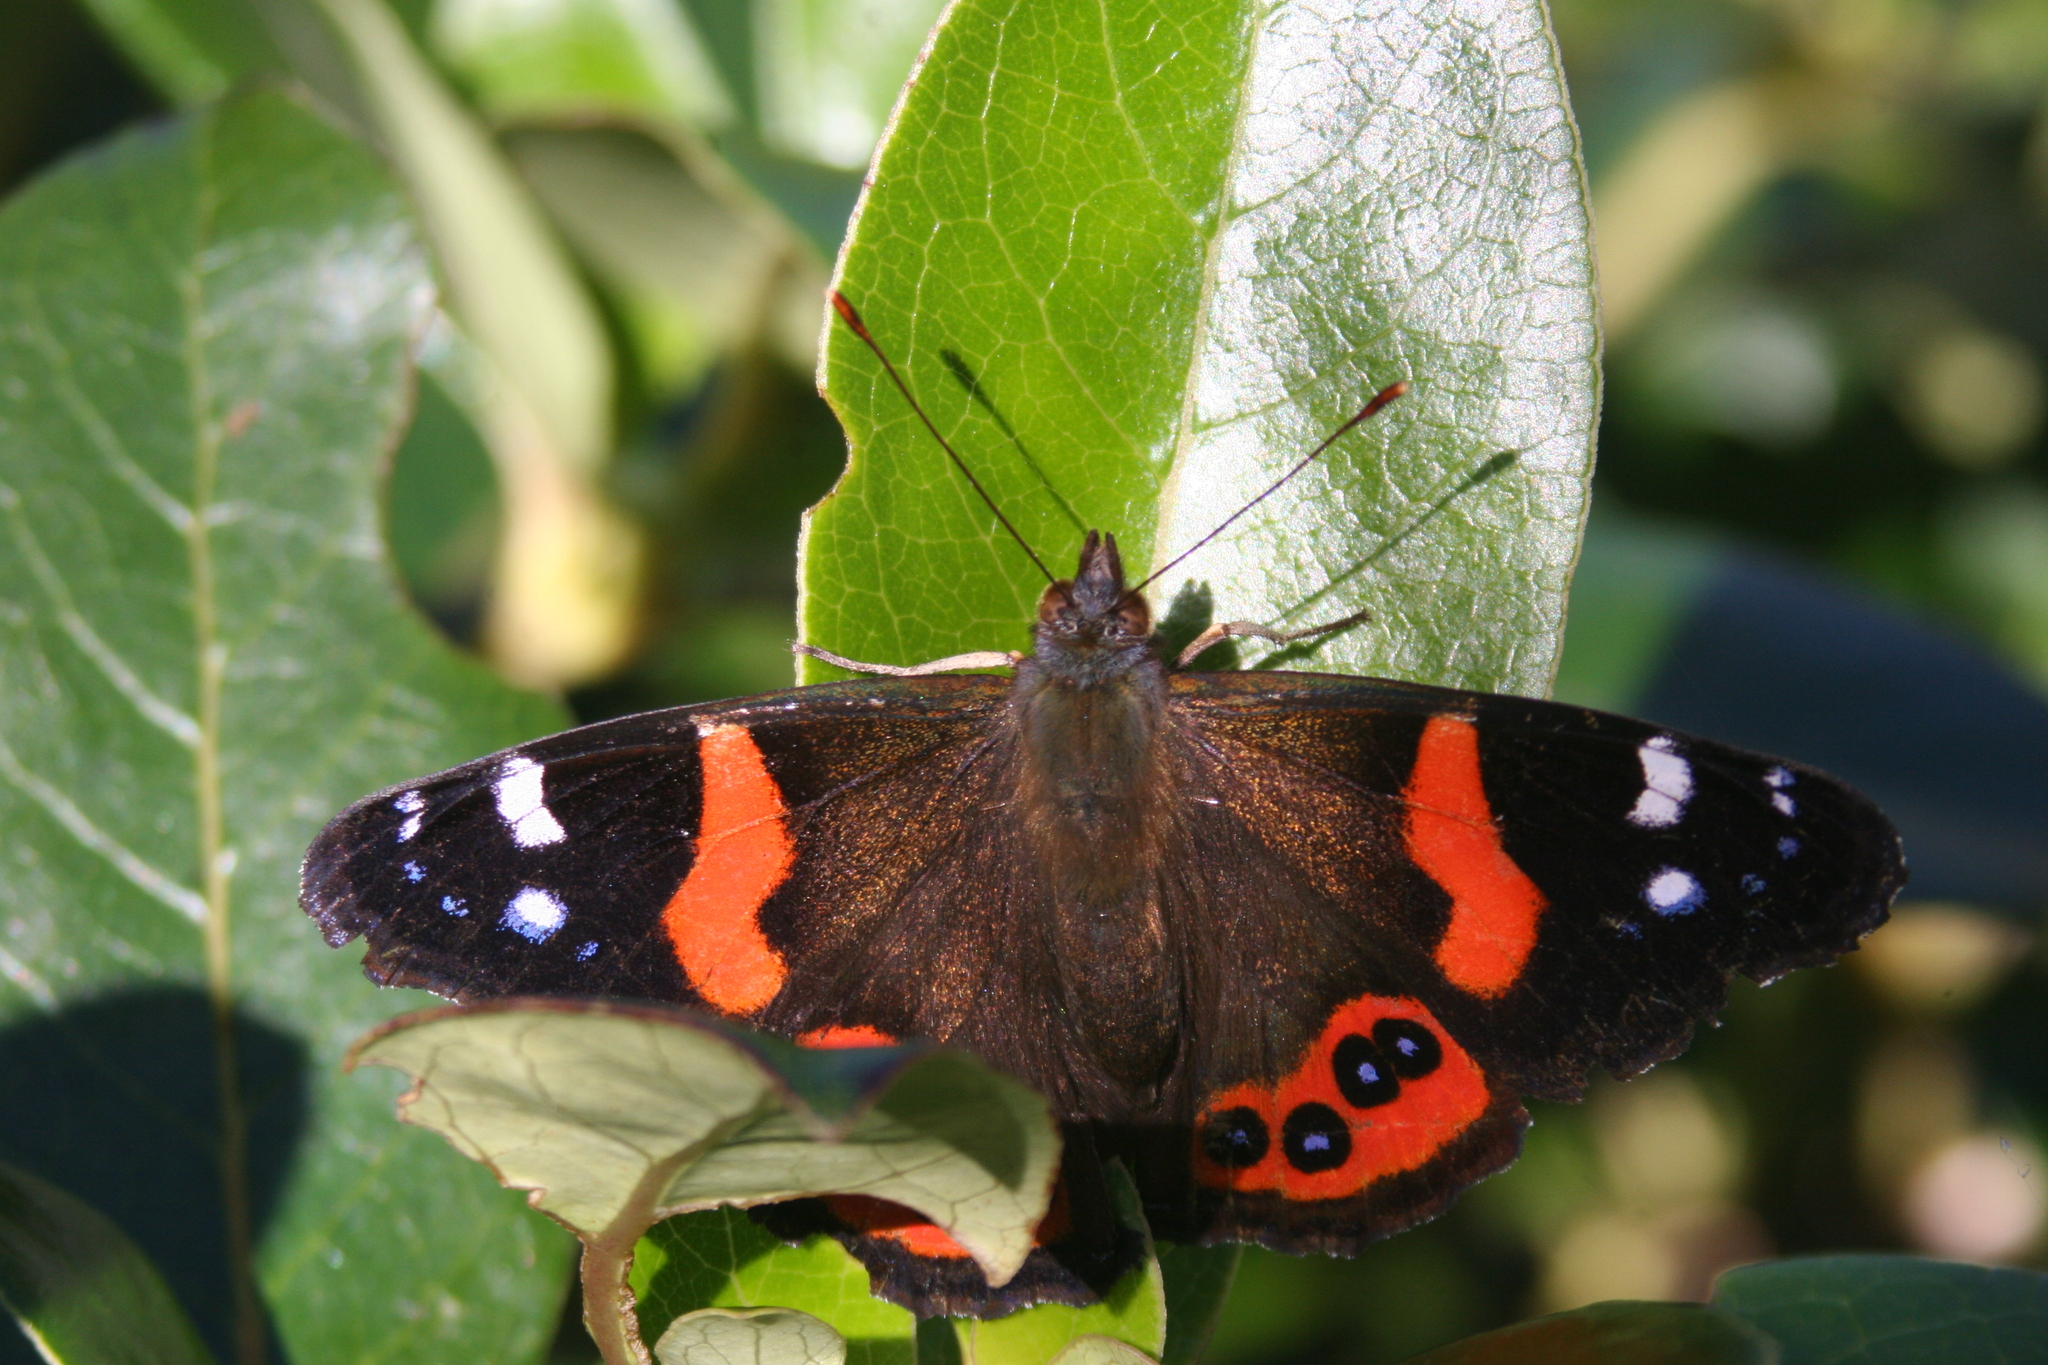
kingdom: Animalia
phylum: Arthropoda
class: Insecta
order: Lepidoptera
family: Nymphalidae
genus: Vanessa
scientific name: Vanessa gonerilla
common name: New zealand red admiral
